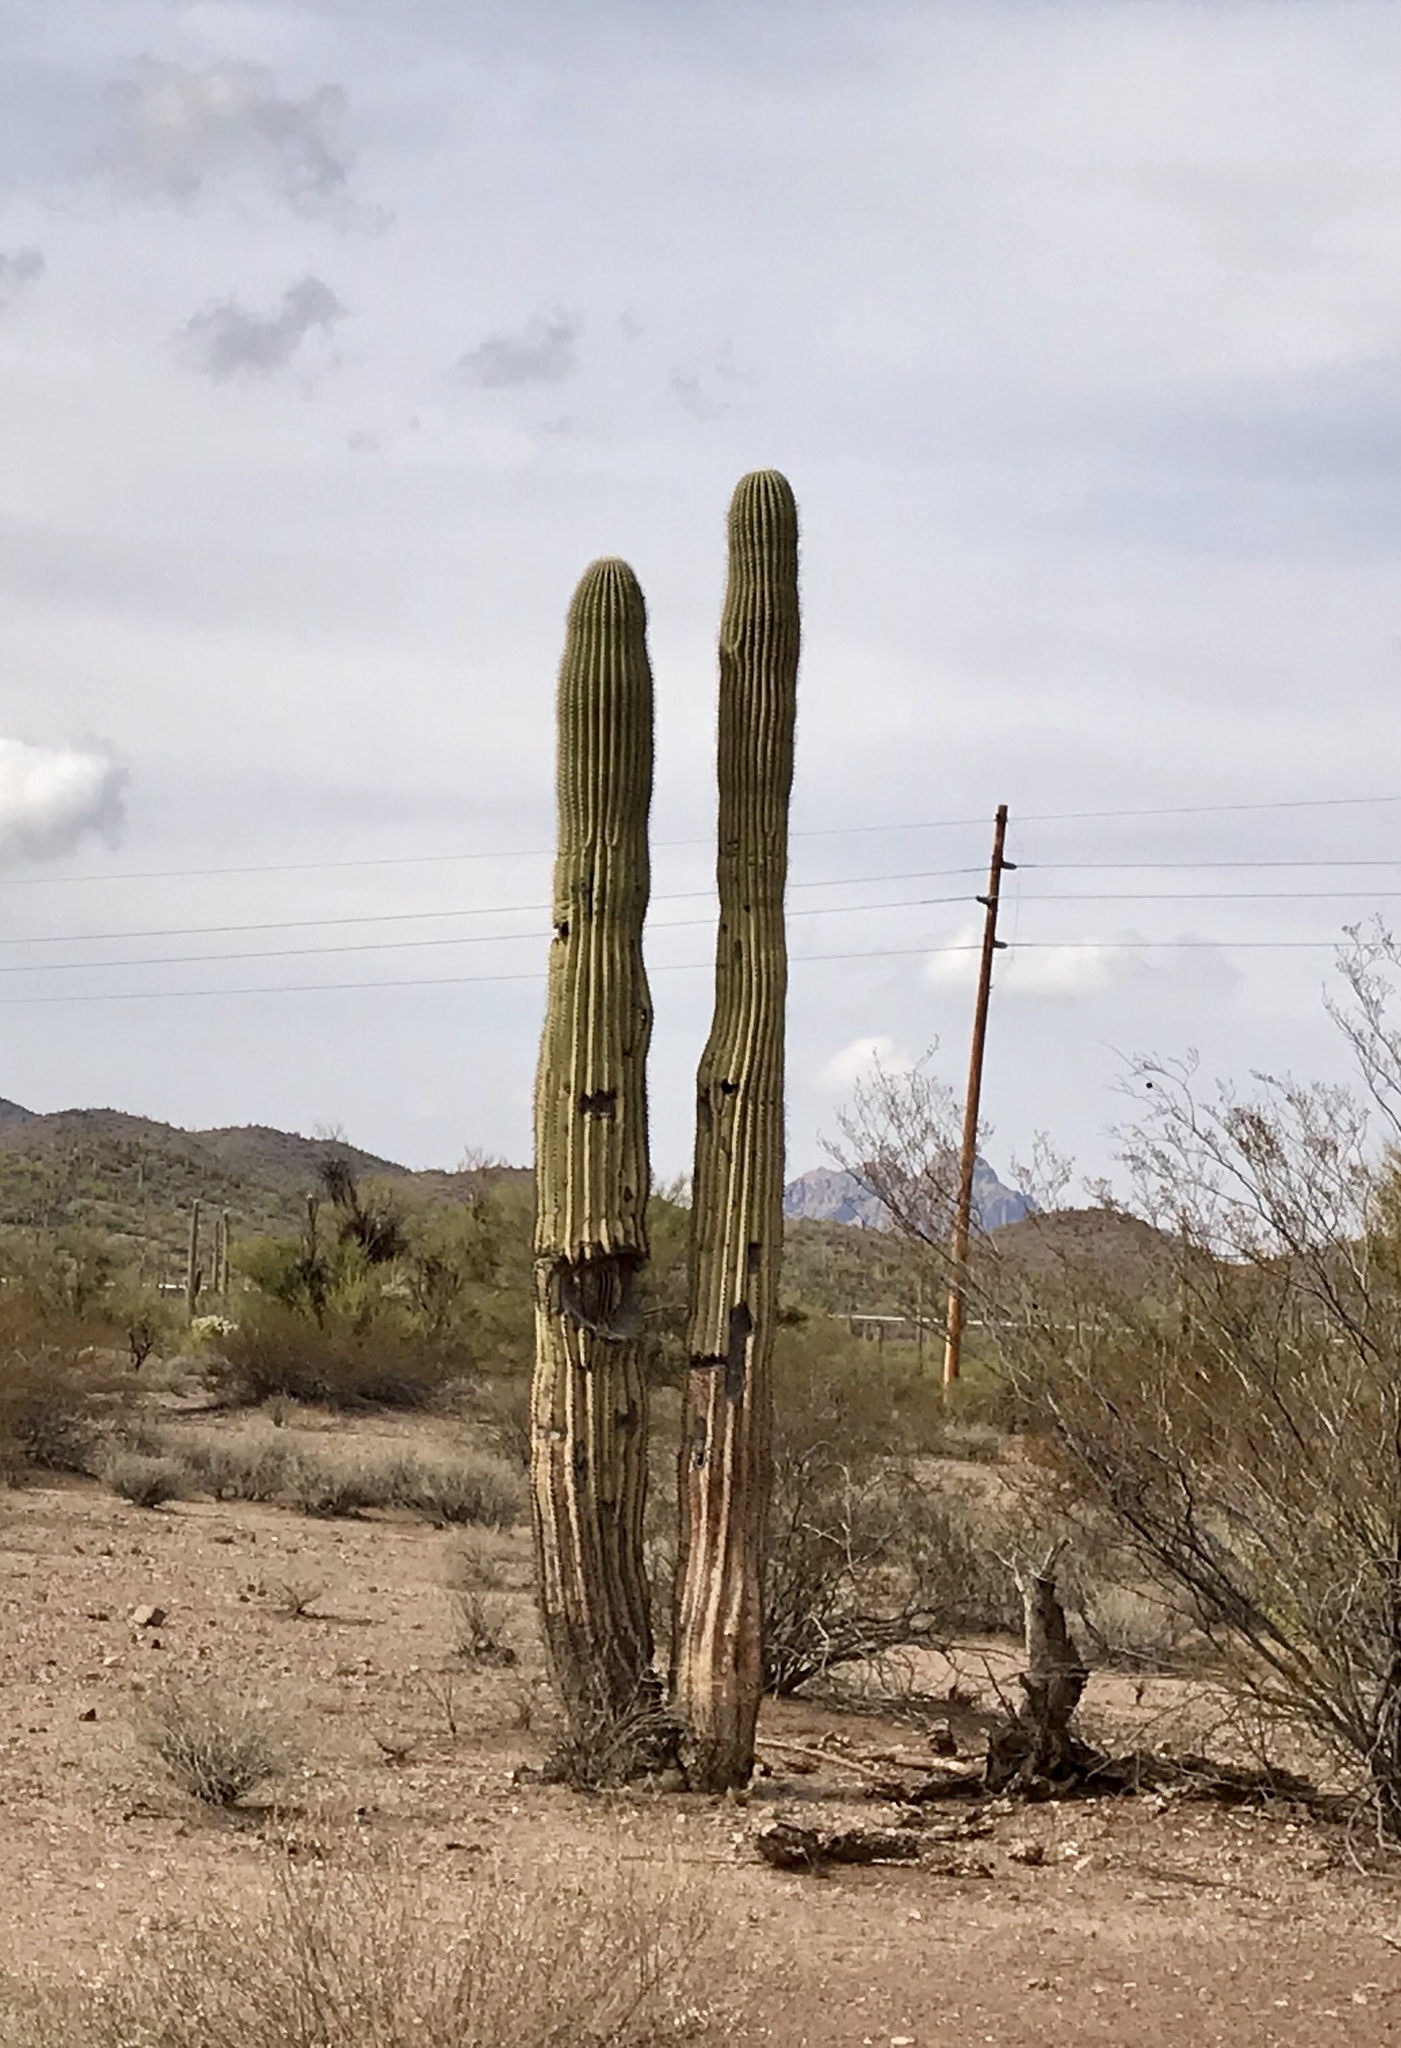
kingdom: Plantae
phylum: Tracheophyta
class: Magnoliopsida
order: Caryophyllales
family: Cactaceae
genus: Carnegiea
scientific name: Carnegiea gigantea
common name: Saguaro
